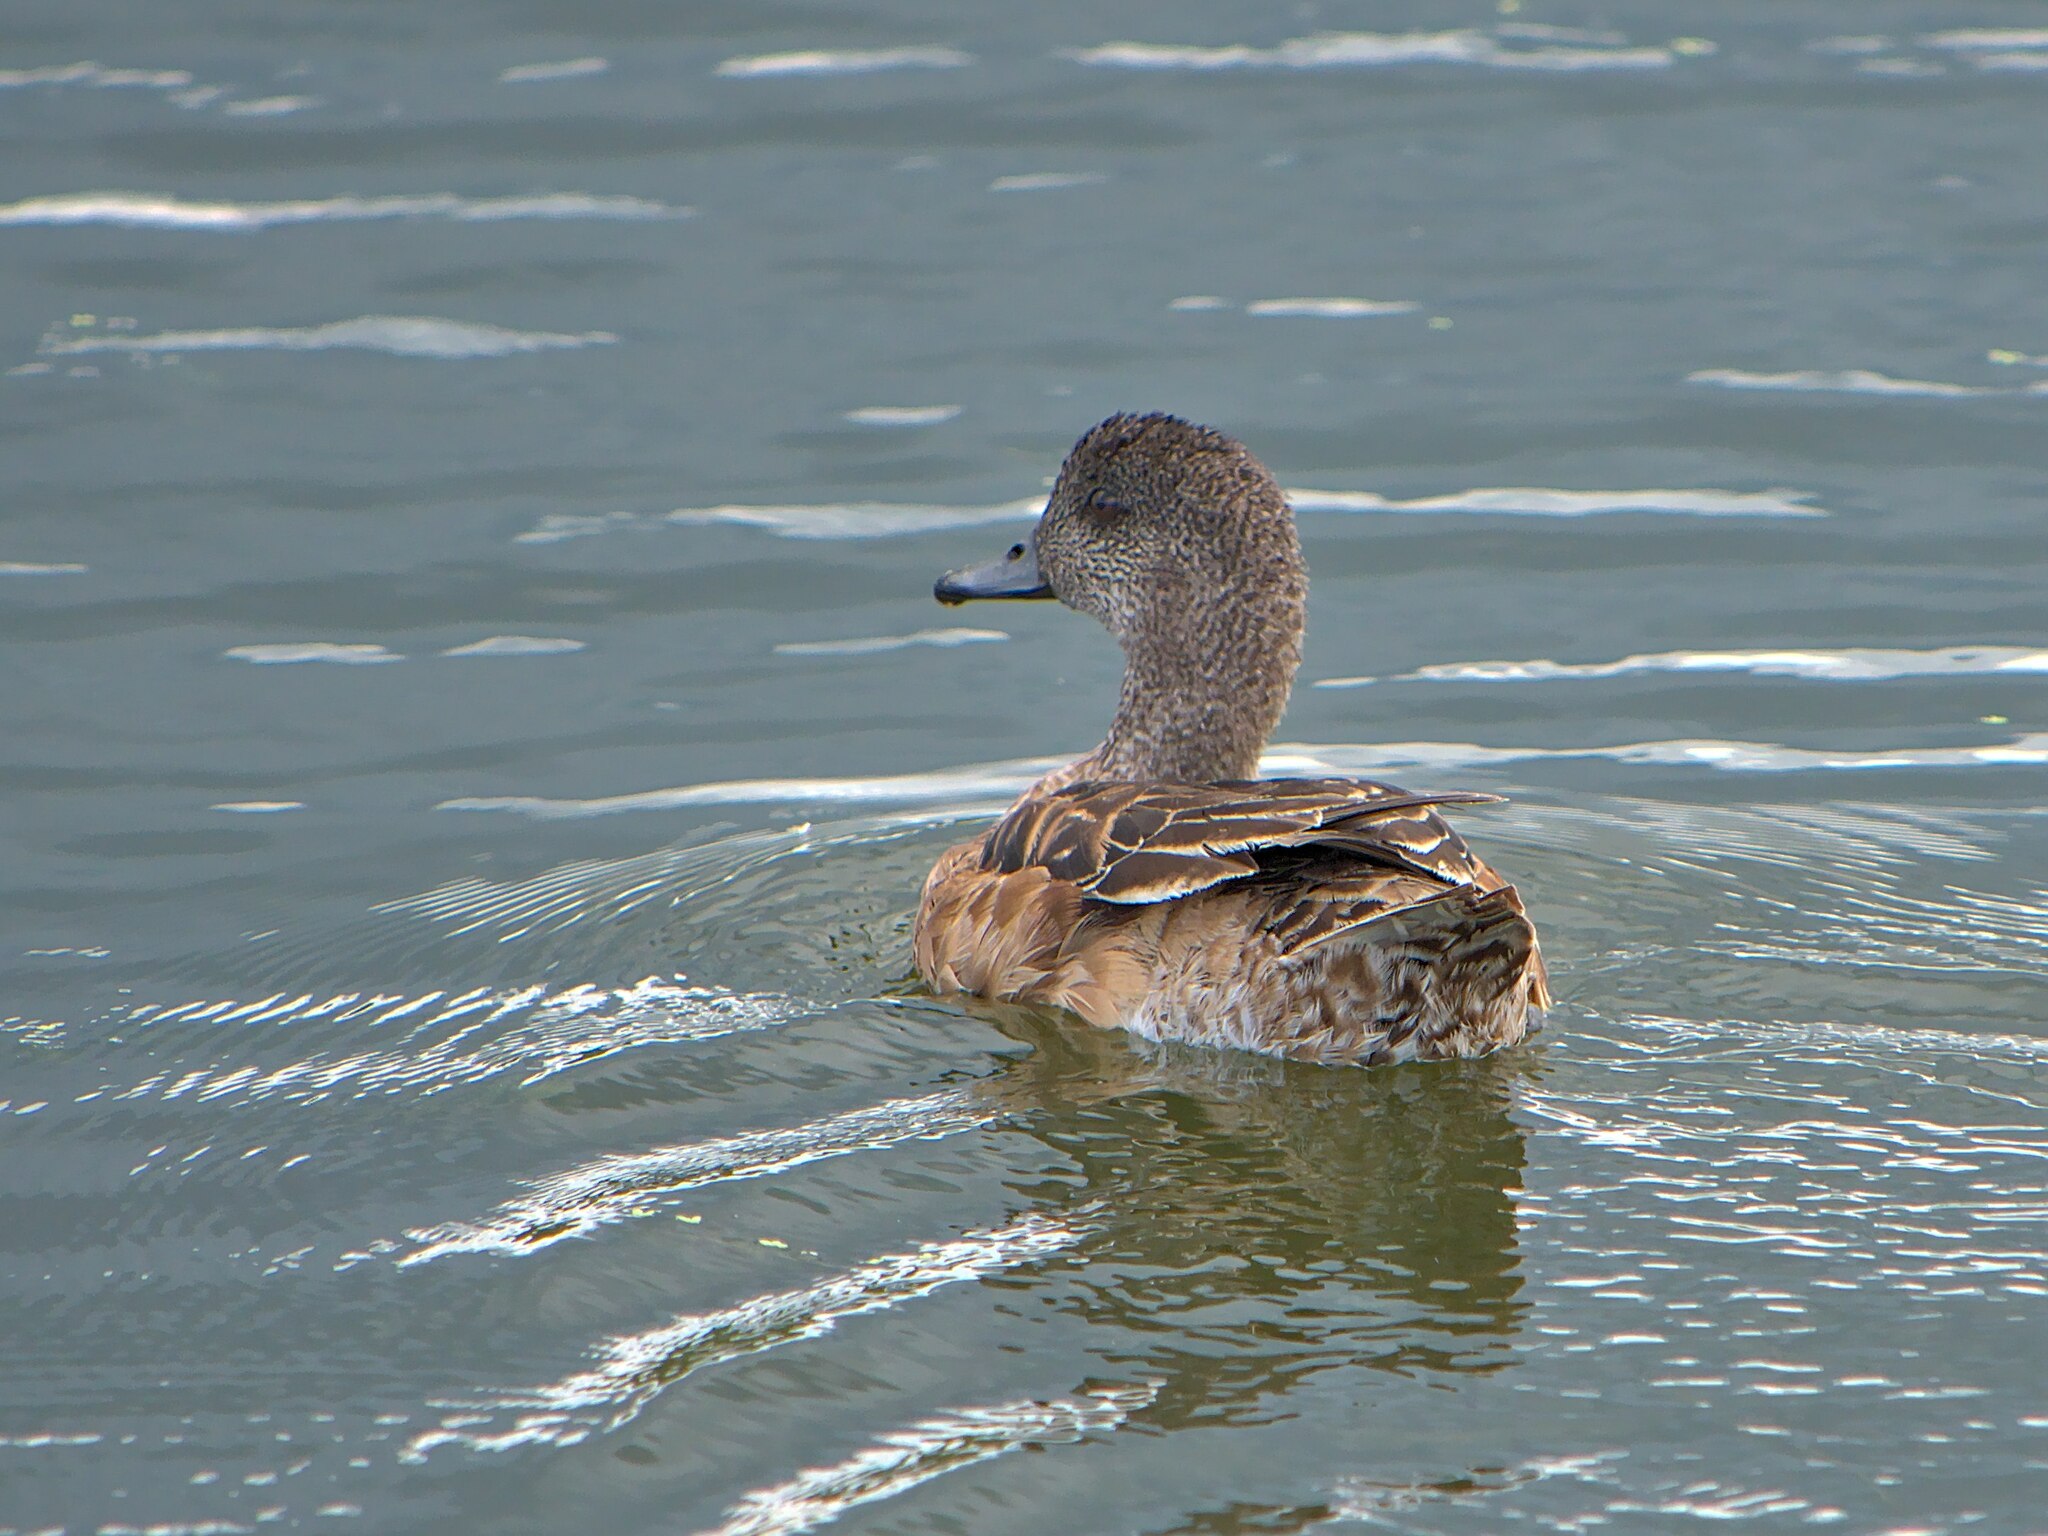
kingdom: Animalia
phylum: Chordata
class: Aves
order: Anseriformes
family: Anatidae
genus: Mareca
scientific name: Mareca americana
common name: American wigeon
